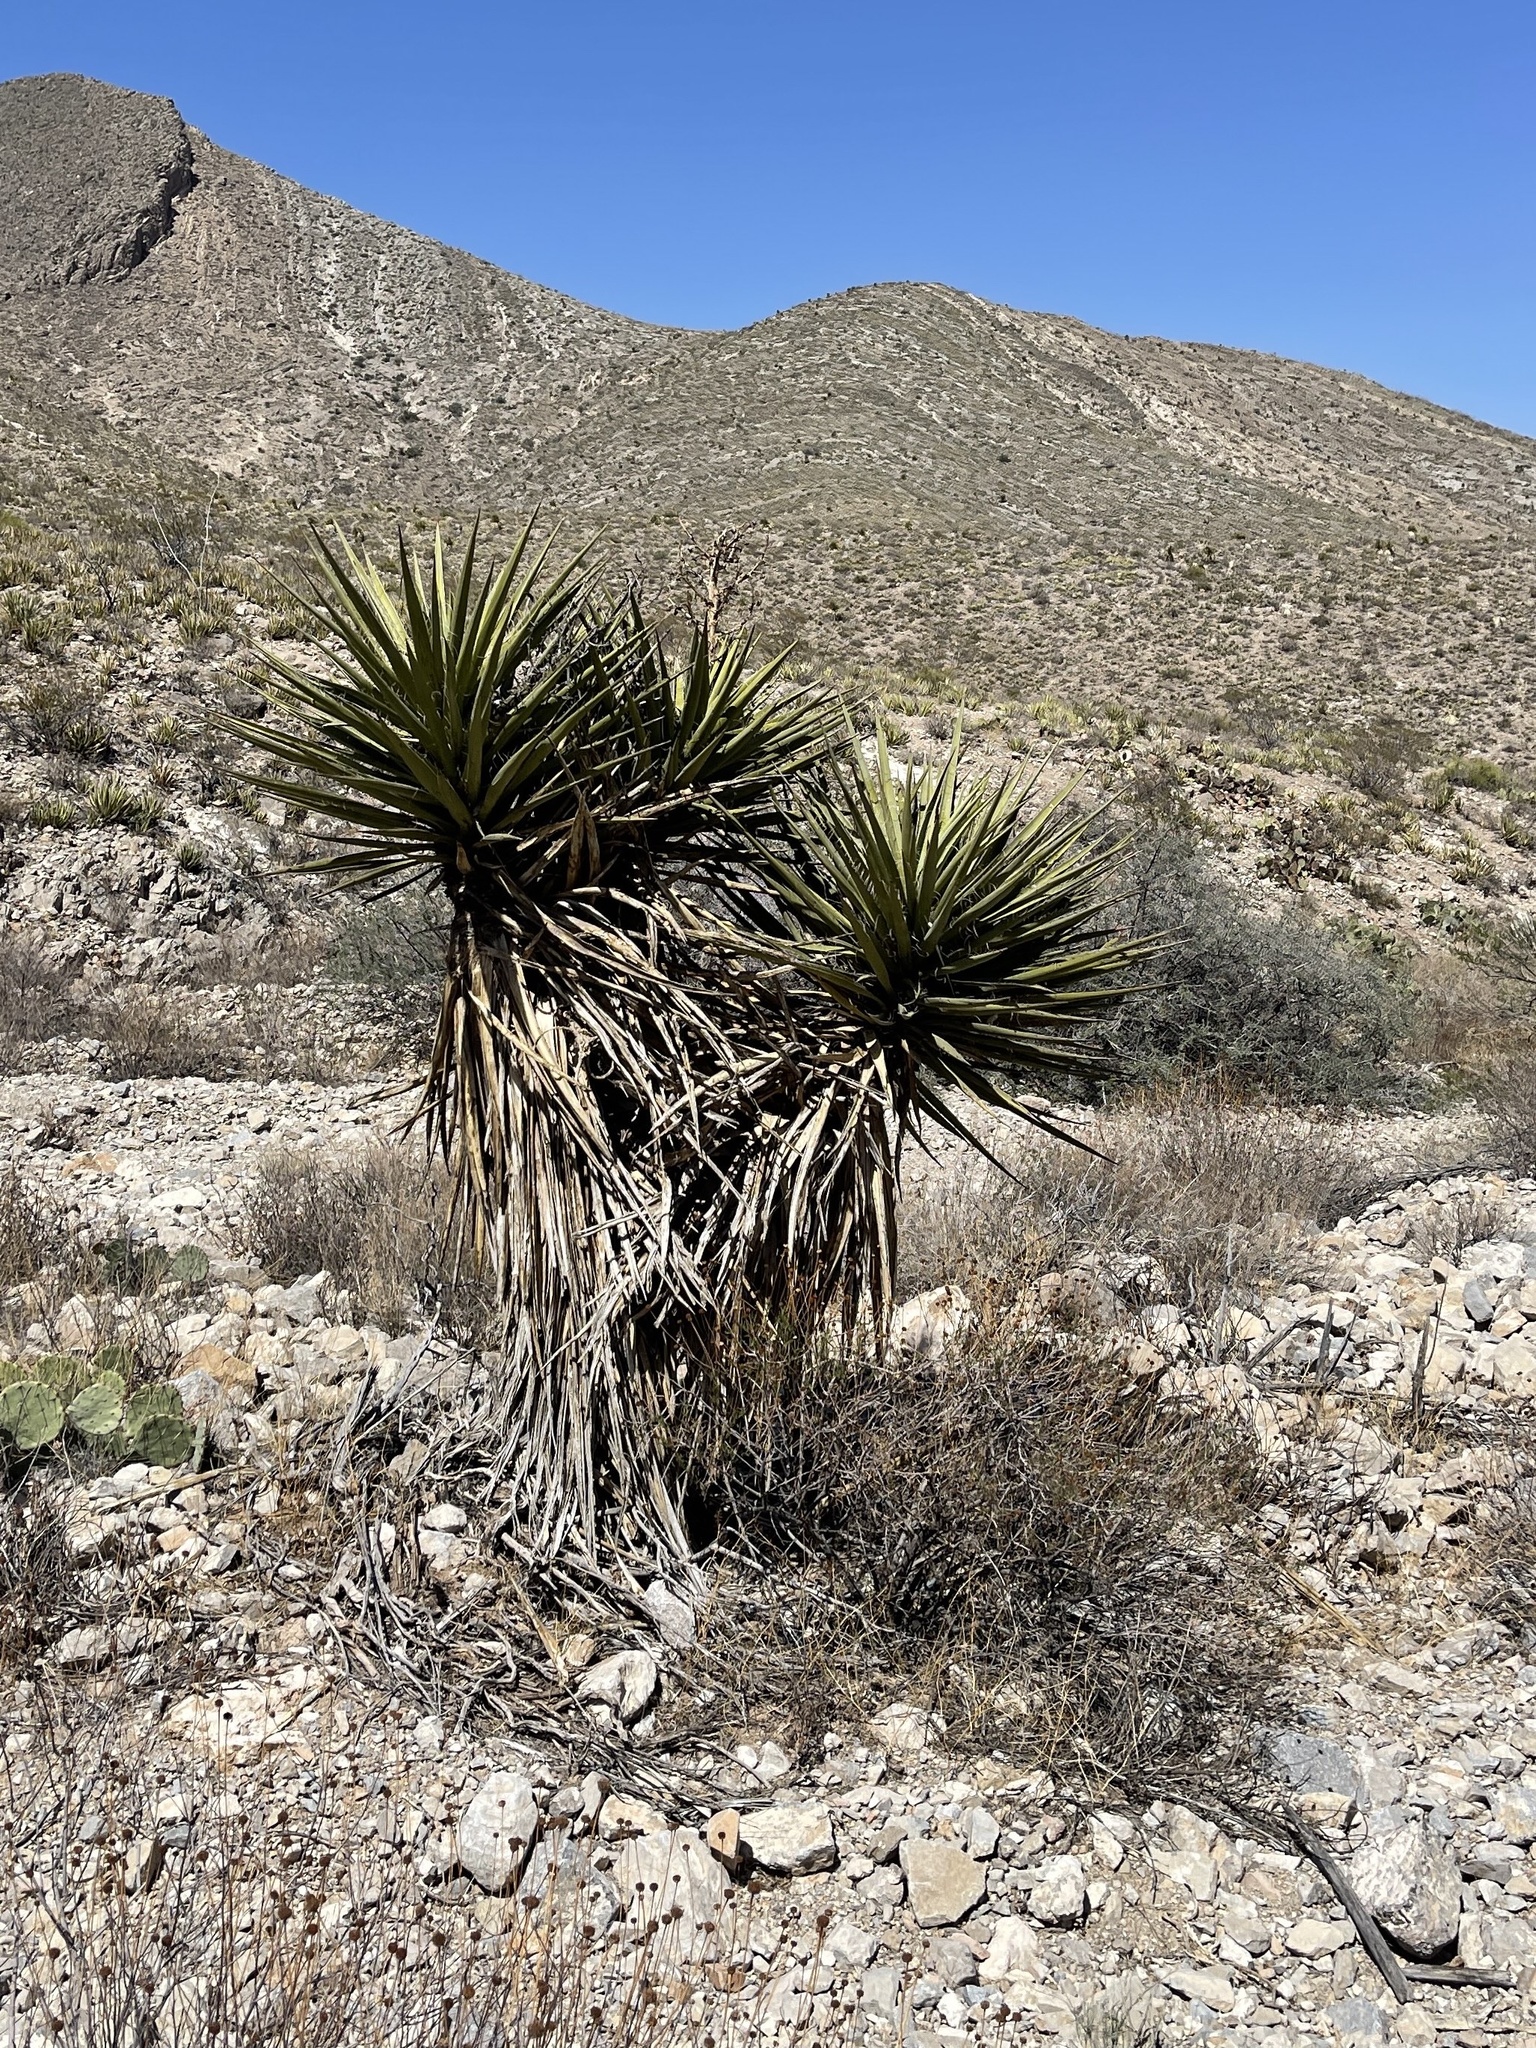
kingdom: Plantae
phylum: Tracheophyta
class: Liliopsida
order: Asparagales
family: Asparagaceae
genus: Yucca
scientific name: Yucca treculiana
